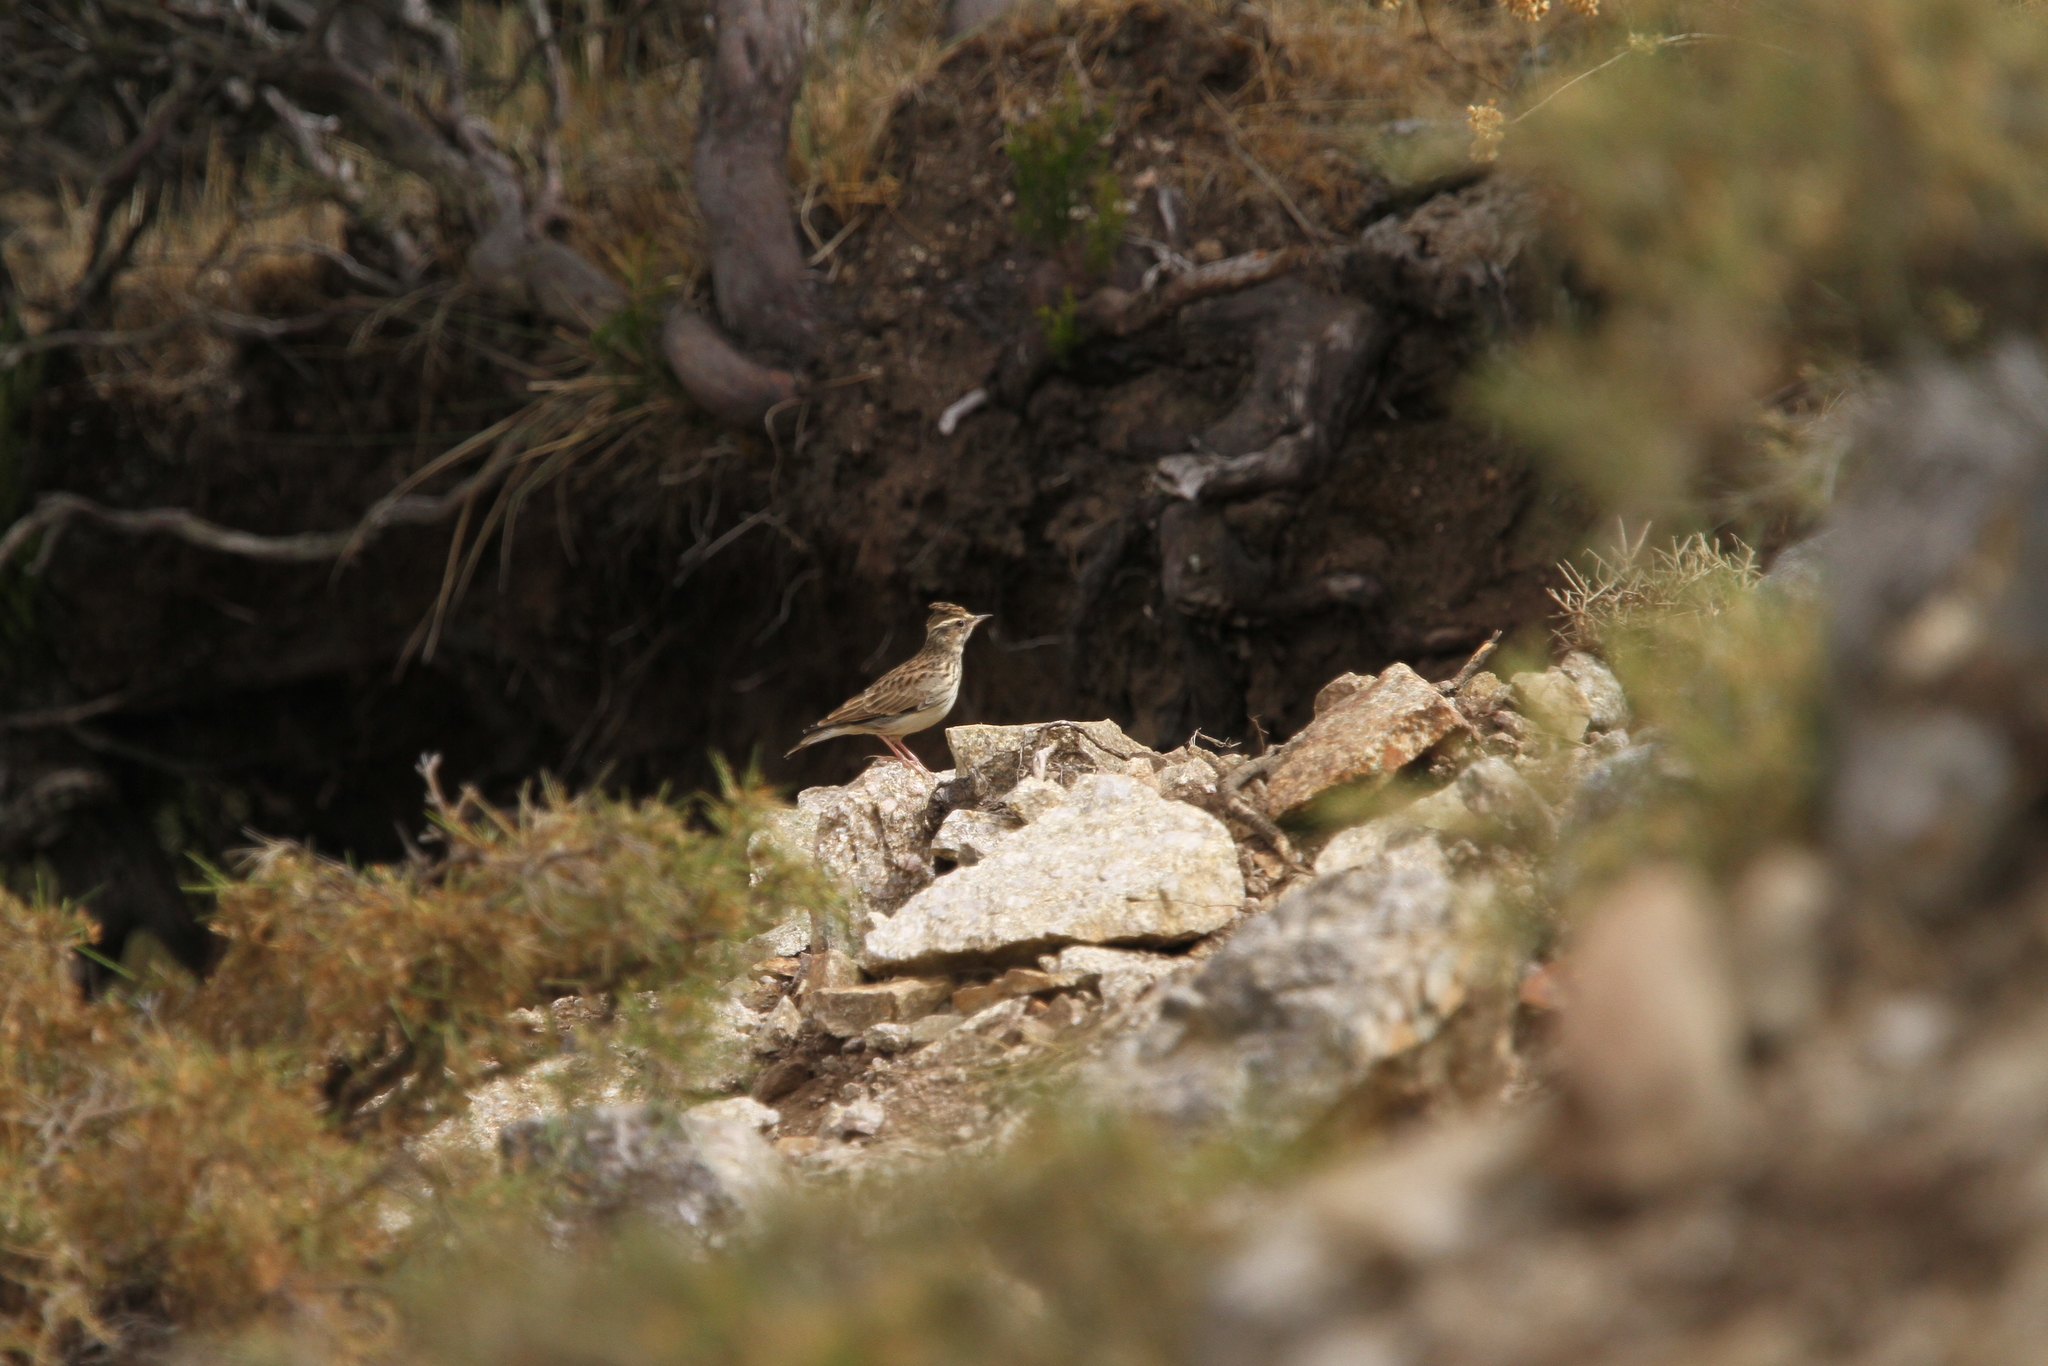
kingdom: Animalia
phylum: Chordata
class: Aves
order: Passeriformes
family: Alaudidae
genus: Lullula
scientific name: Lullula arborea
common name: Woodlark
